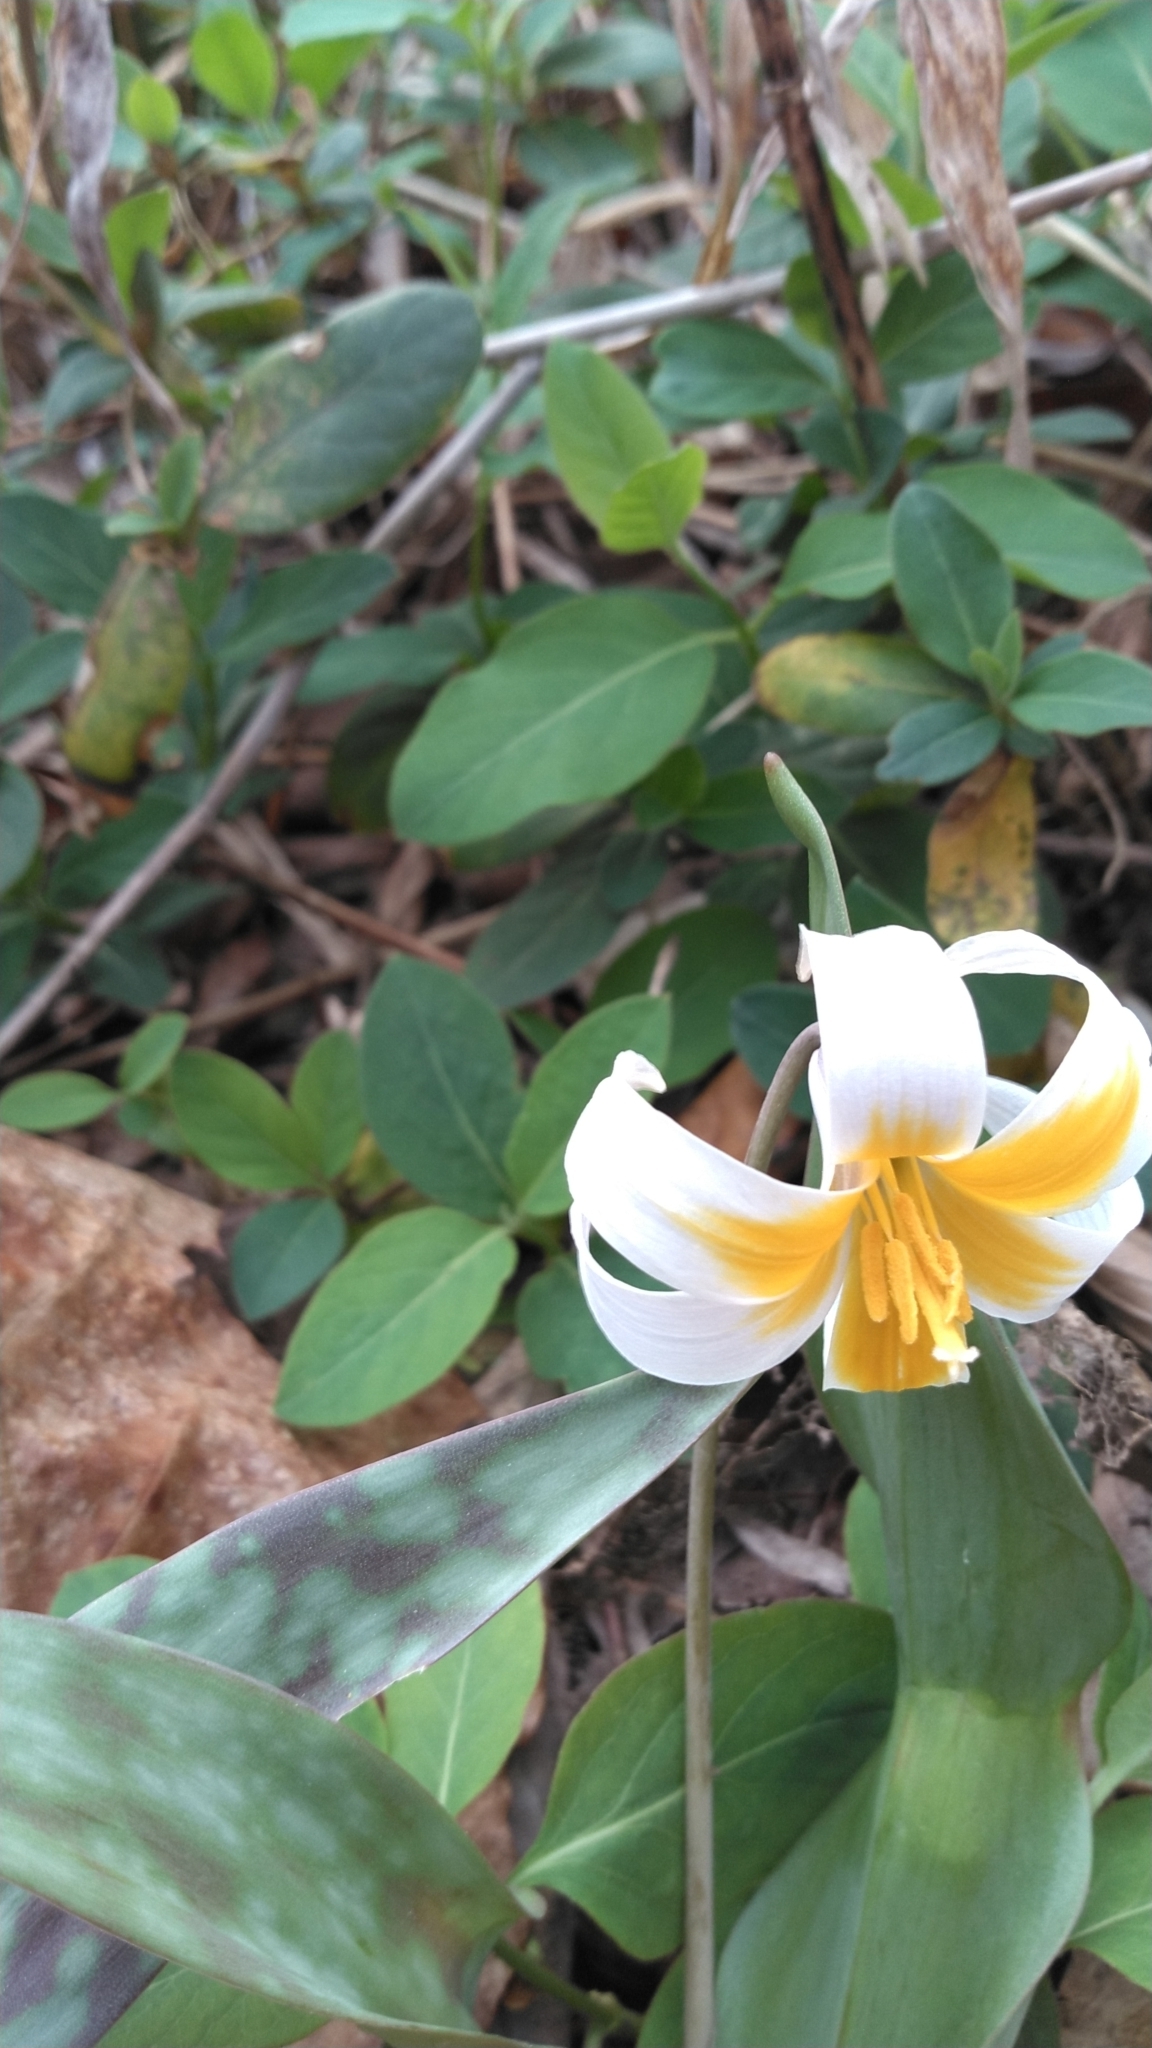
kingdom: Plantae
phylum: Tracheophyta
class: Liliopsida
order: Liliales
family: Liliaceae
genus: Erythronium
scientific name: Erythronium albidum
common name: White trout-lily
